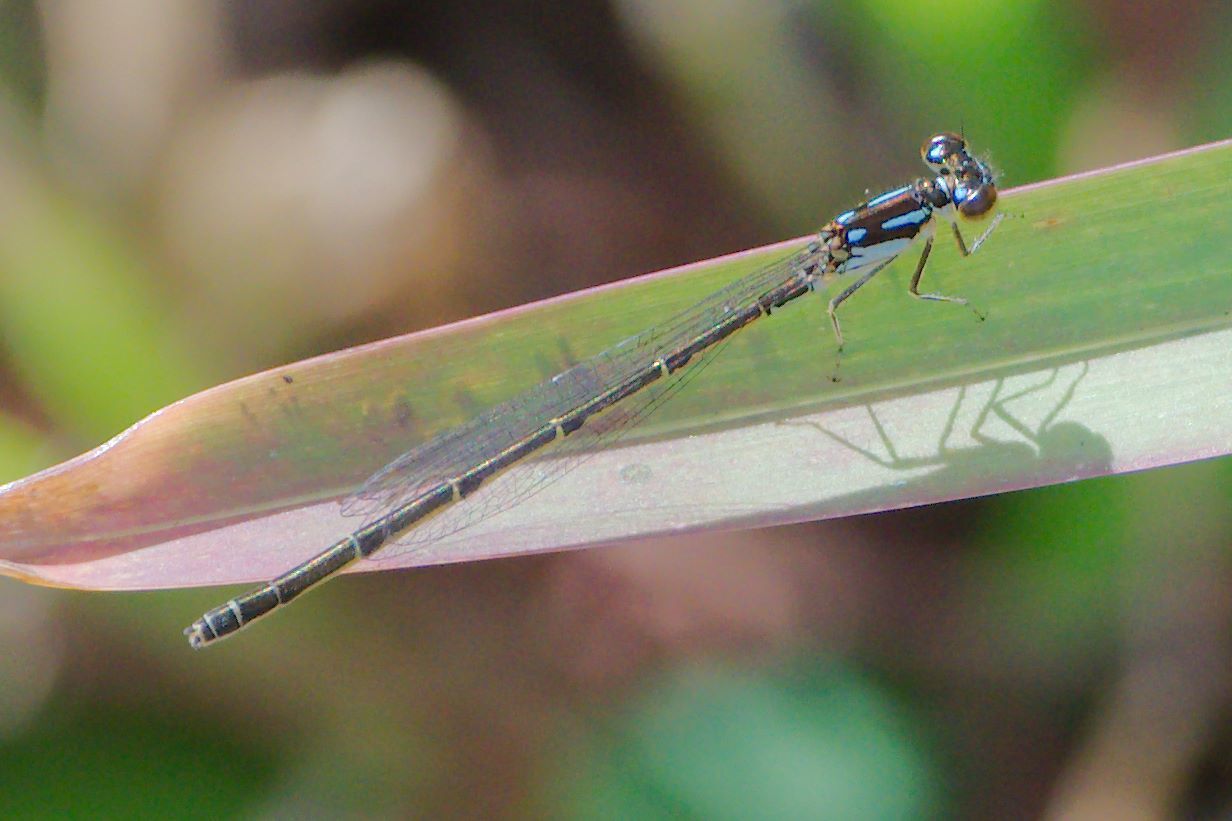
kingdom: Animalia
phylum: Arthropoda
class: Insecta
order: Odonata
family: Coenagrionidae
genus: Ischnura
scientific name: Ischnura posita
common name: Fragile forktail
